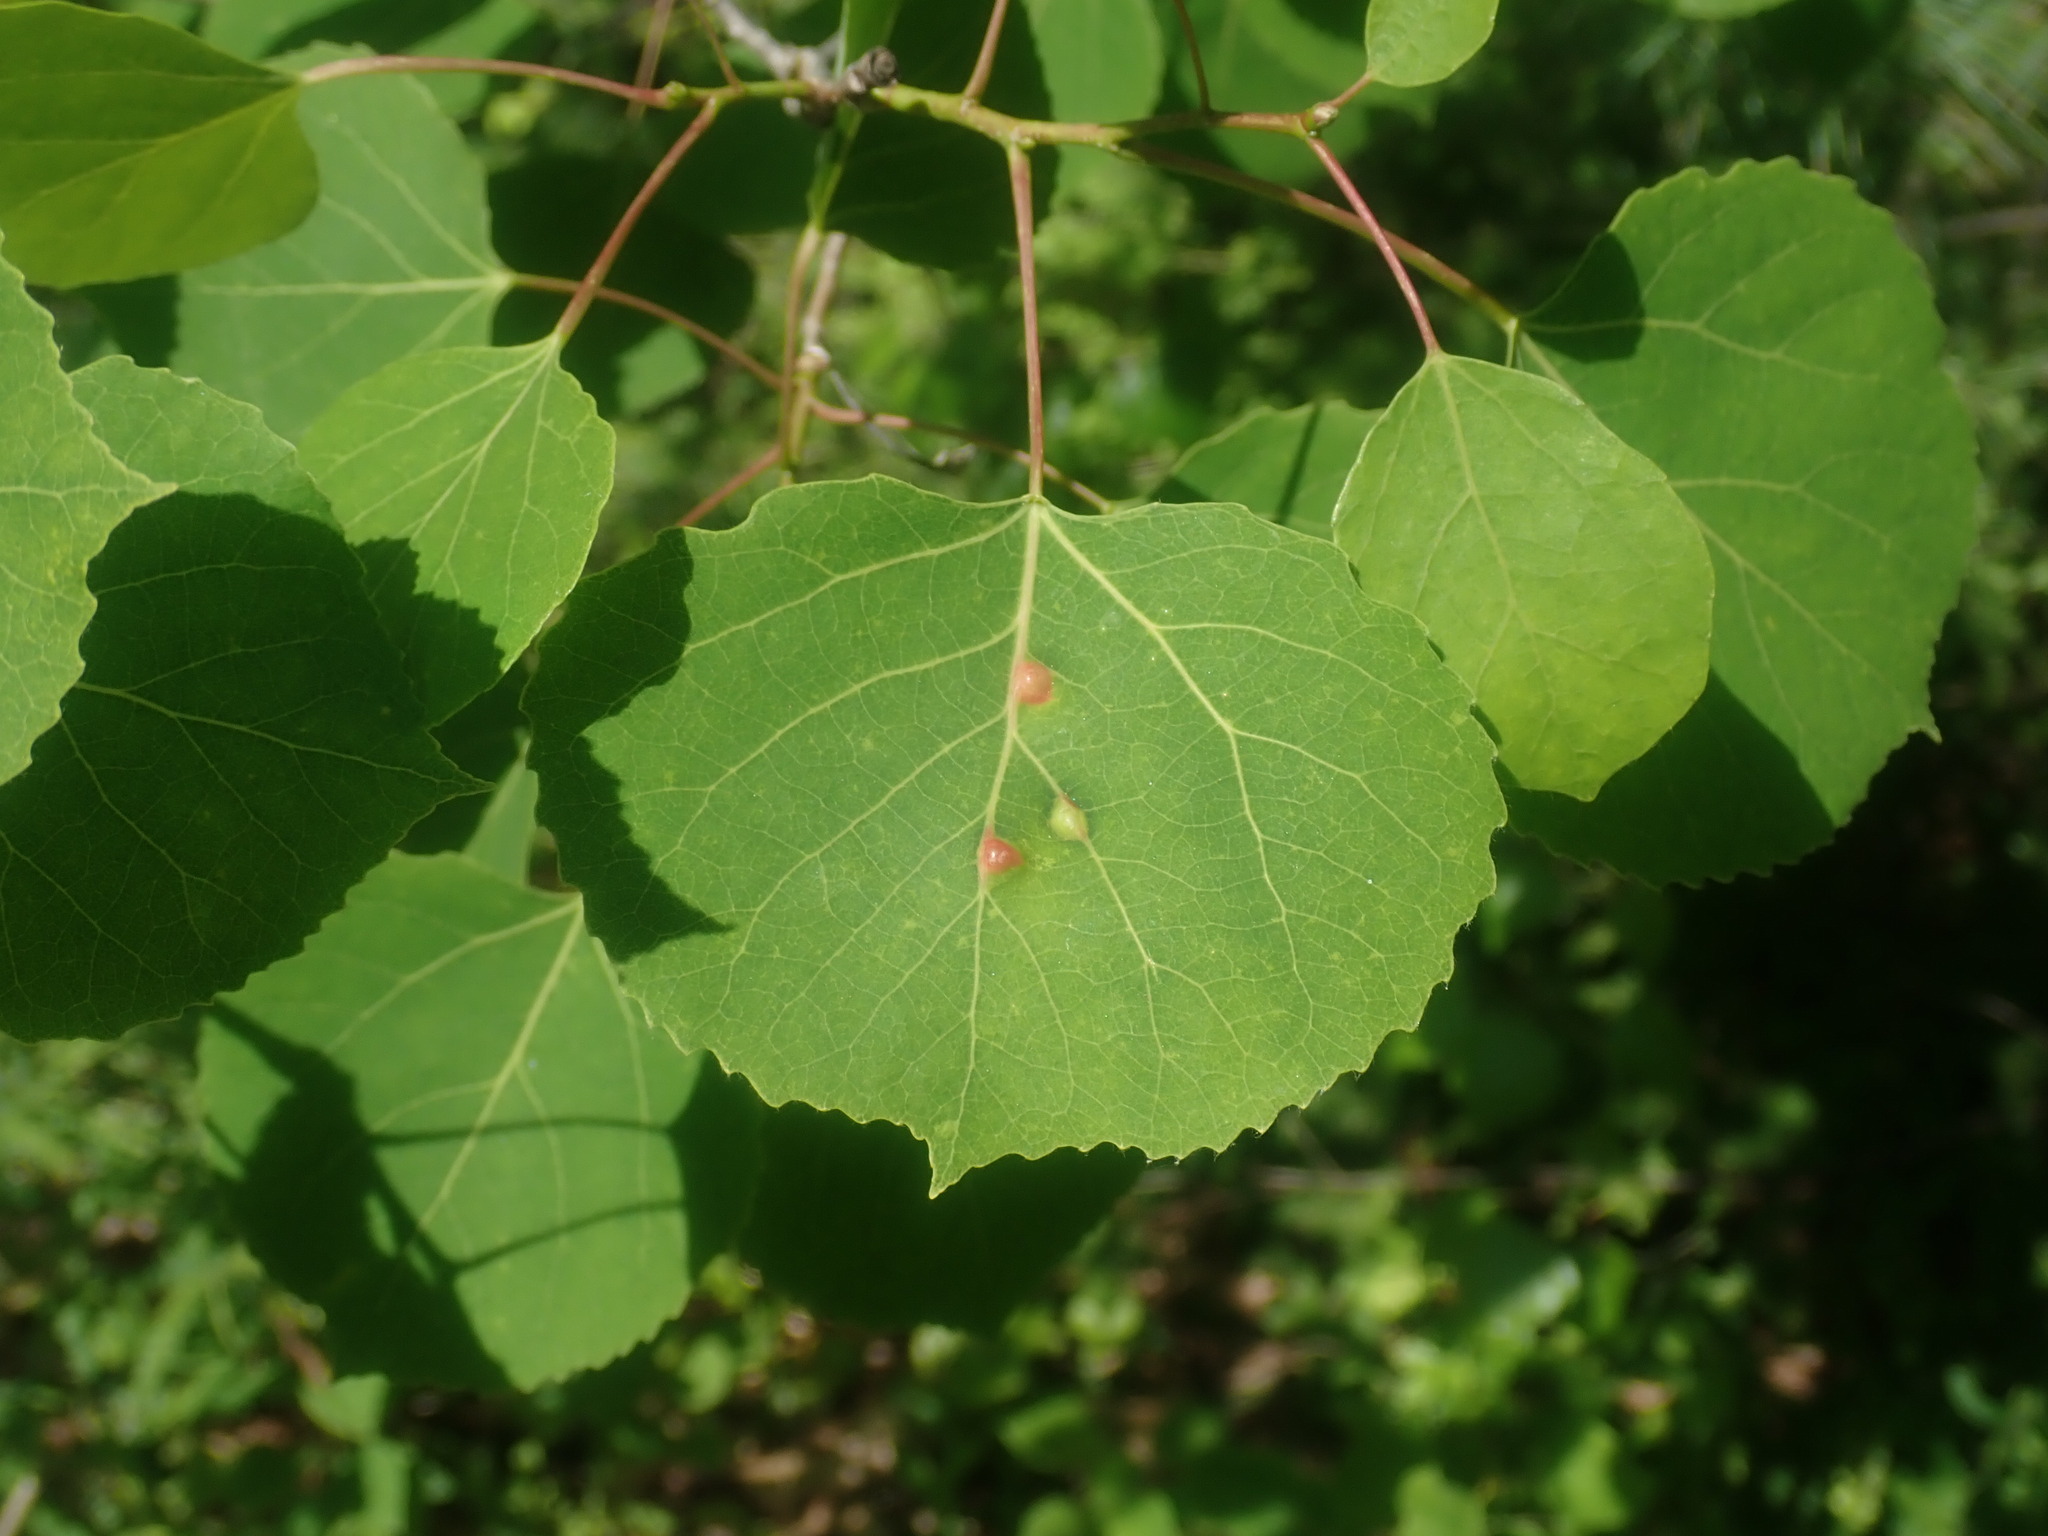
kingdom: Plantae
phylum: Tracheophyta
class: Magnoliopsida
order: Malpighiales
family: Salicaceae
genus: Populus
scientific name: Populus tremuloides
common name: Quaking aspen
